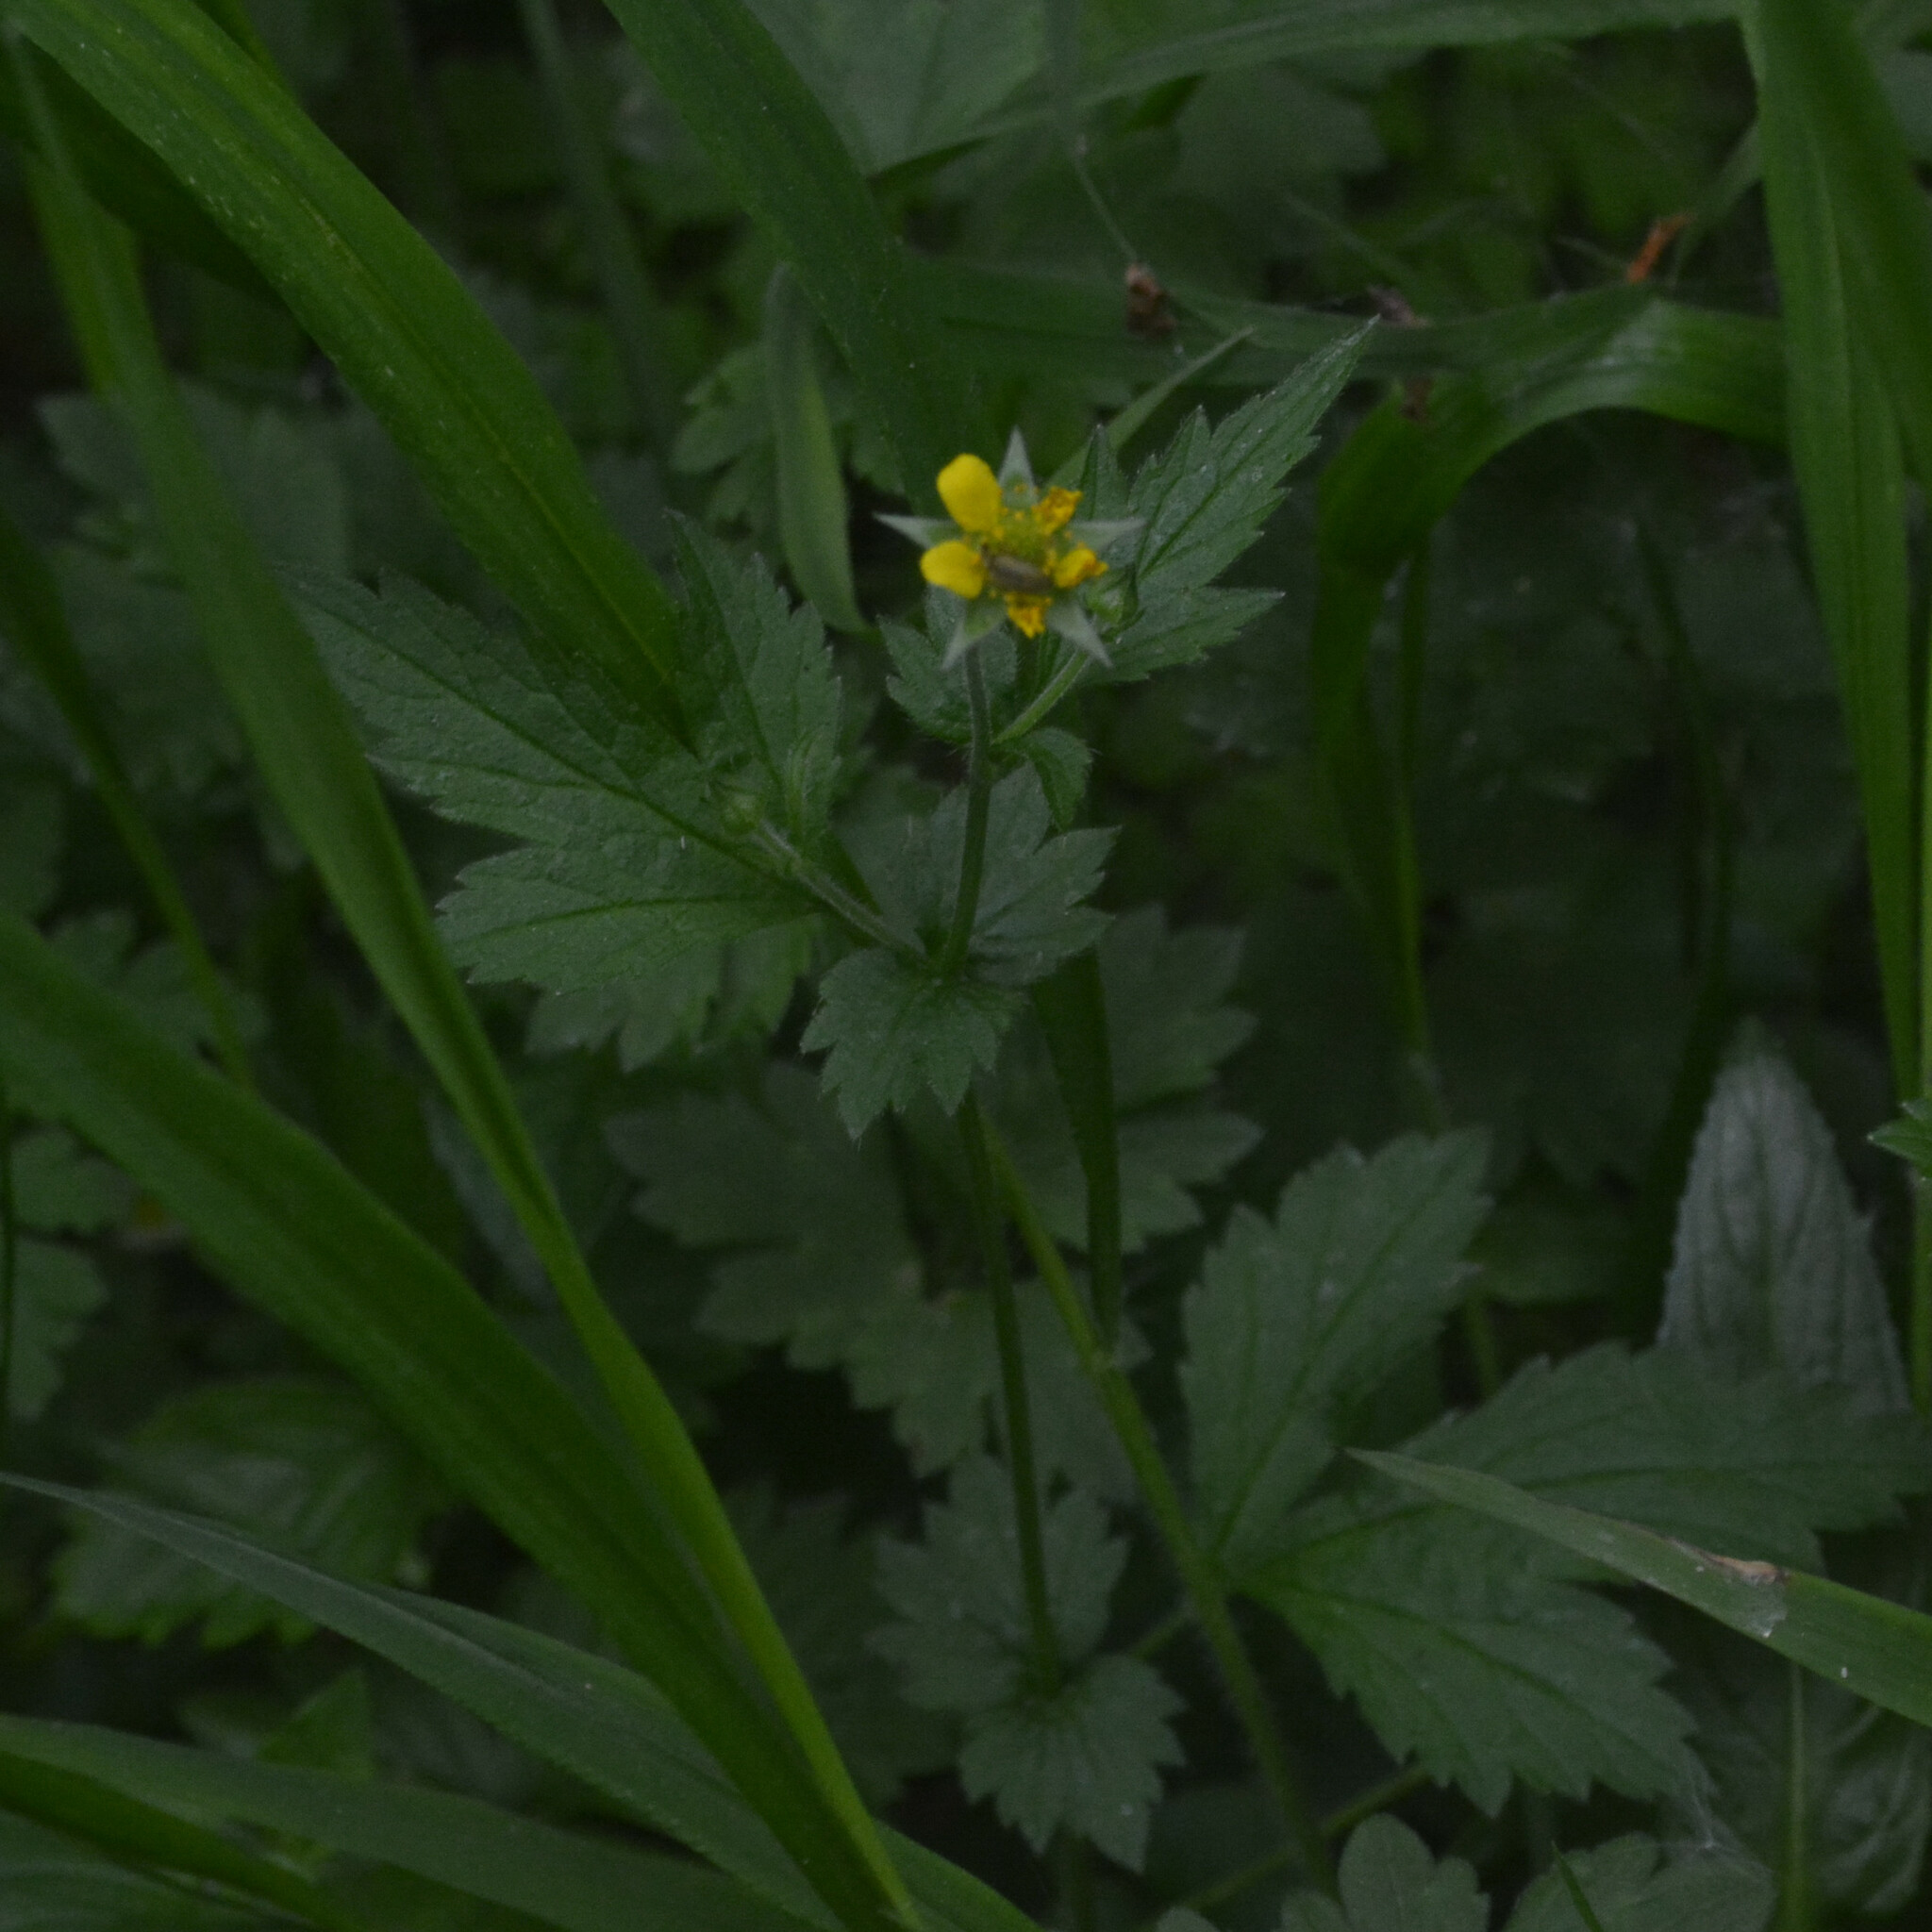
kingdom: Plantae
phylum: Tracheophyta
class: Magnoliopsida
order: Rosales
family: Rosaceae
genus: Geum
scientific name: Geum urbanum
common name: Wood avens
